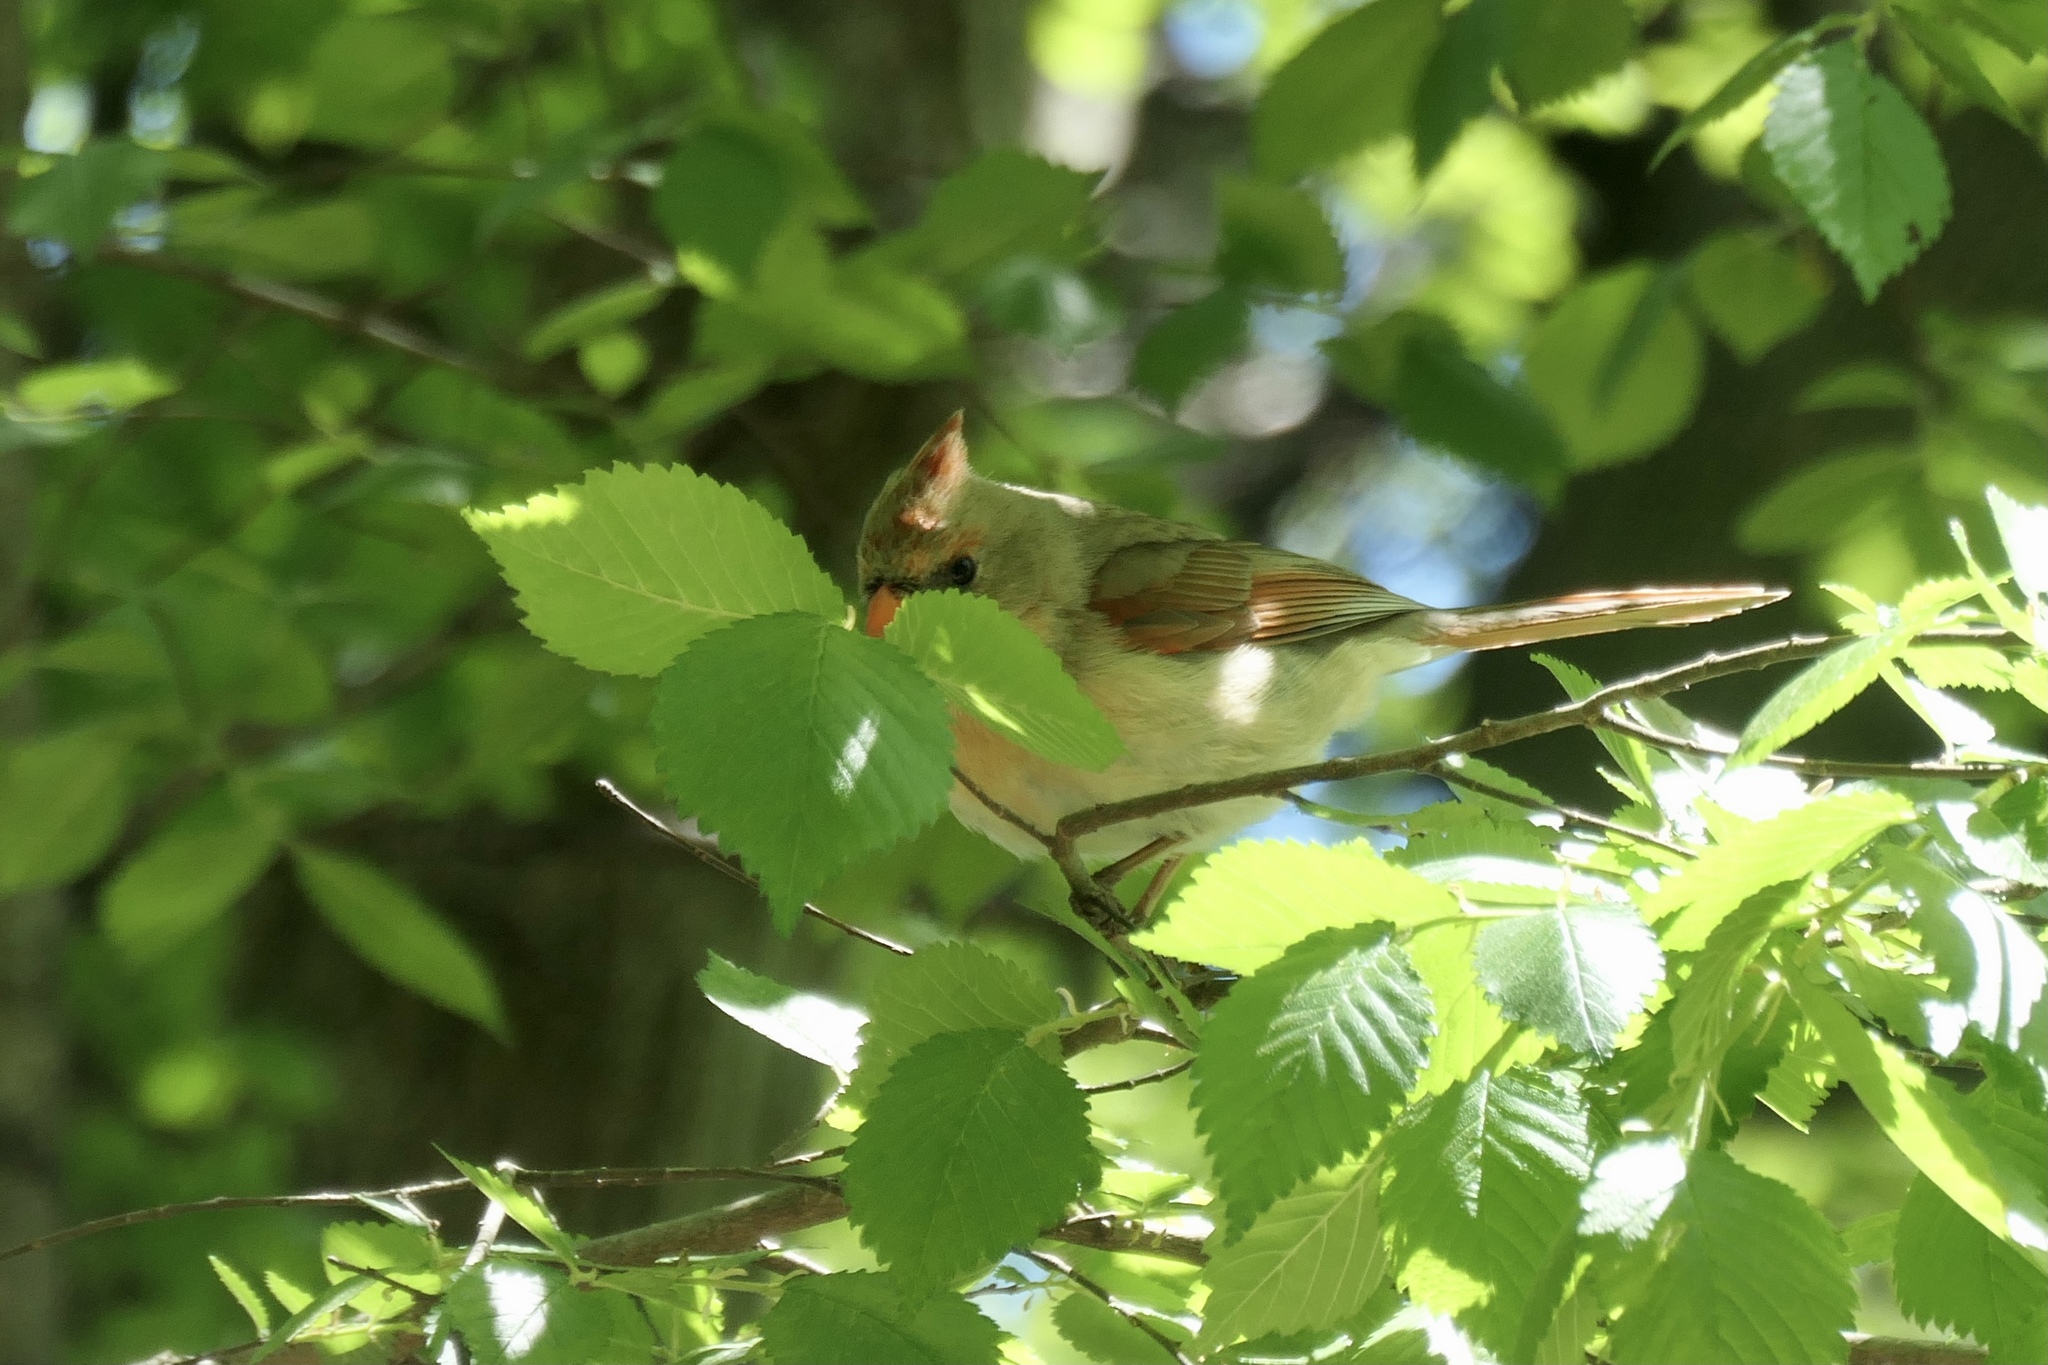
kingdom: Animalia
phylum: Chordata
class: Aves
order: Passeriformes
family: Cardinalidae
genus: Cardinalis
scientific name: Cardinalis cardinalis
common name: Northern cardinal
